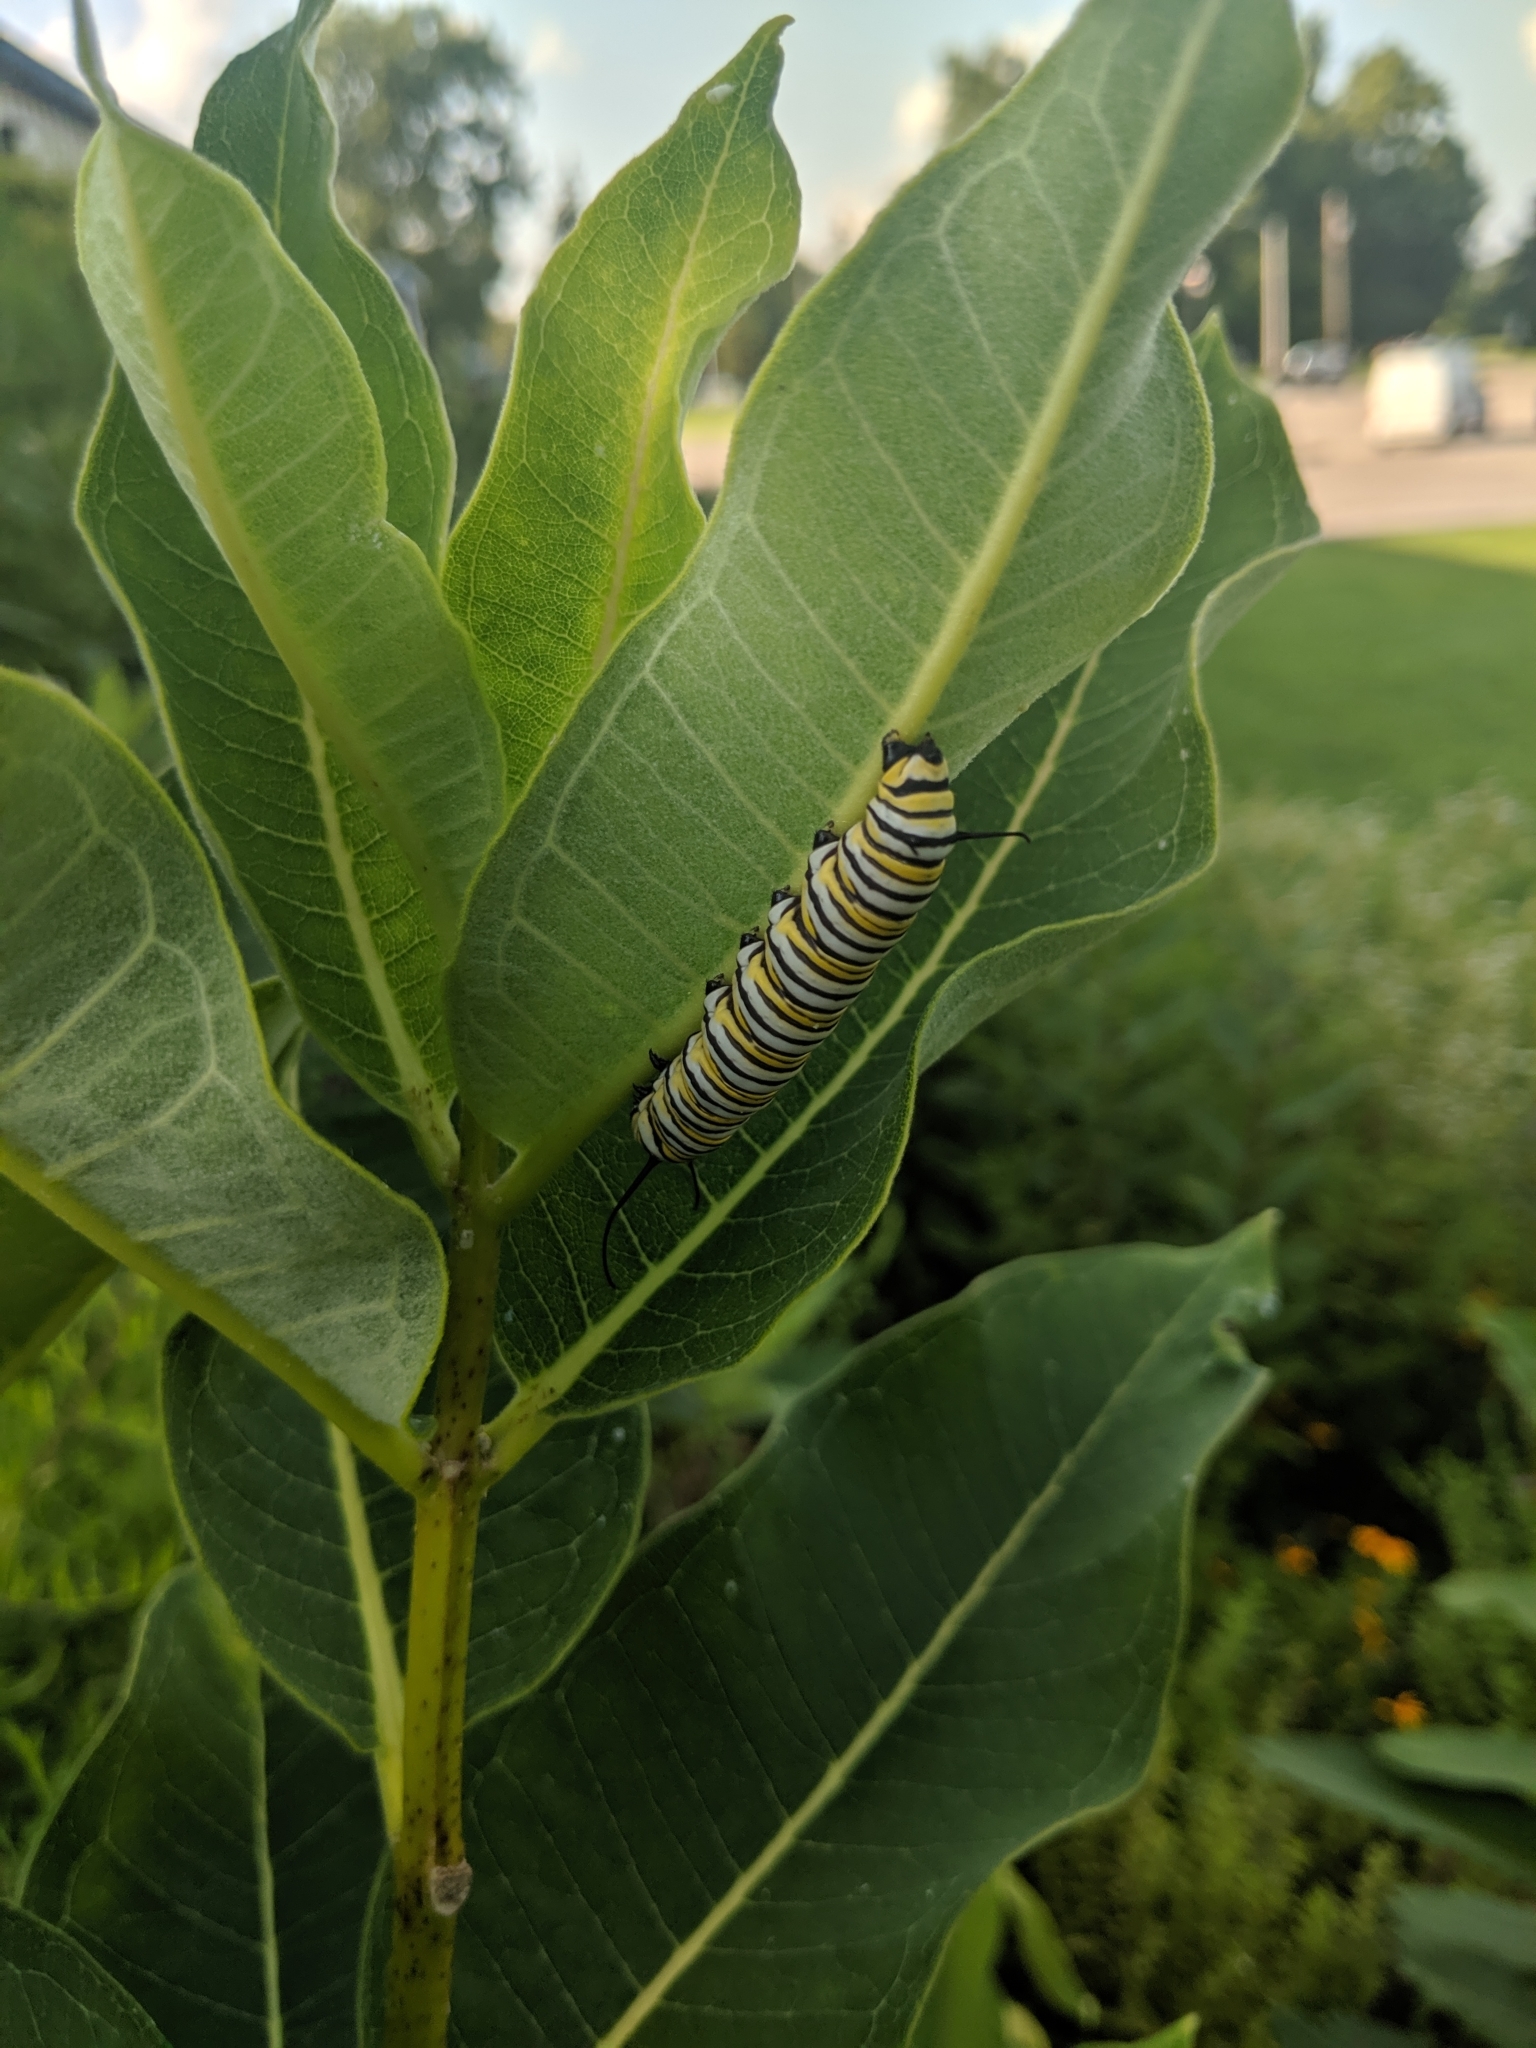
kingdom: Animalia
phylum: Arthropoda
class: Insecta
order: Lepidoptera
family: Nymphalidae
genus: Danaus
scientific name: Danaus plexippus
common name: Monarch
